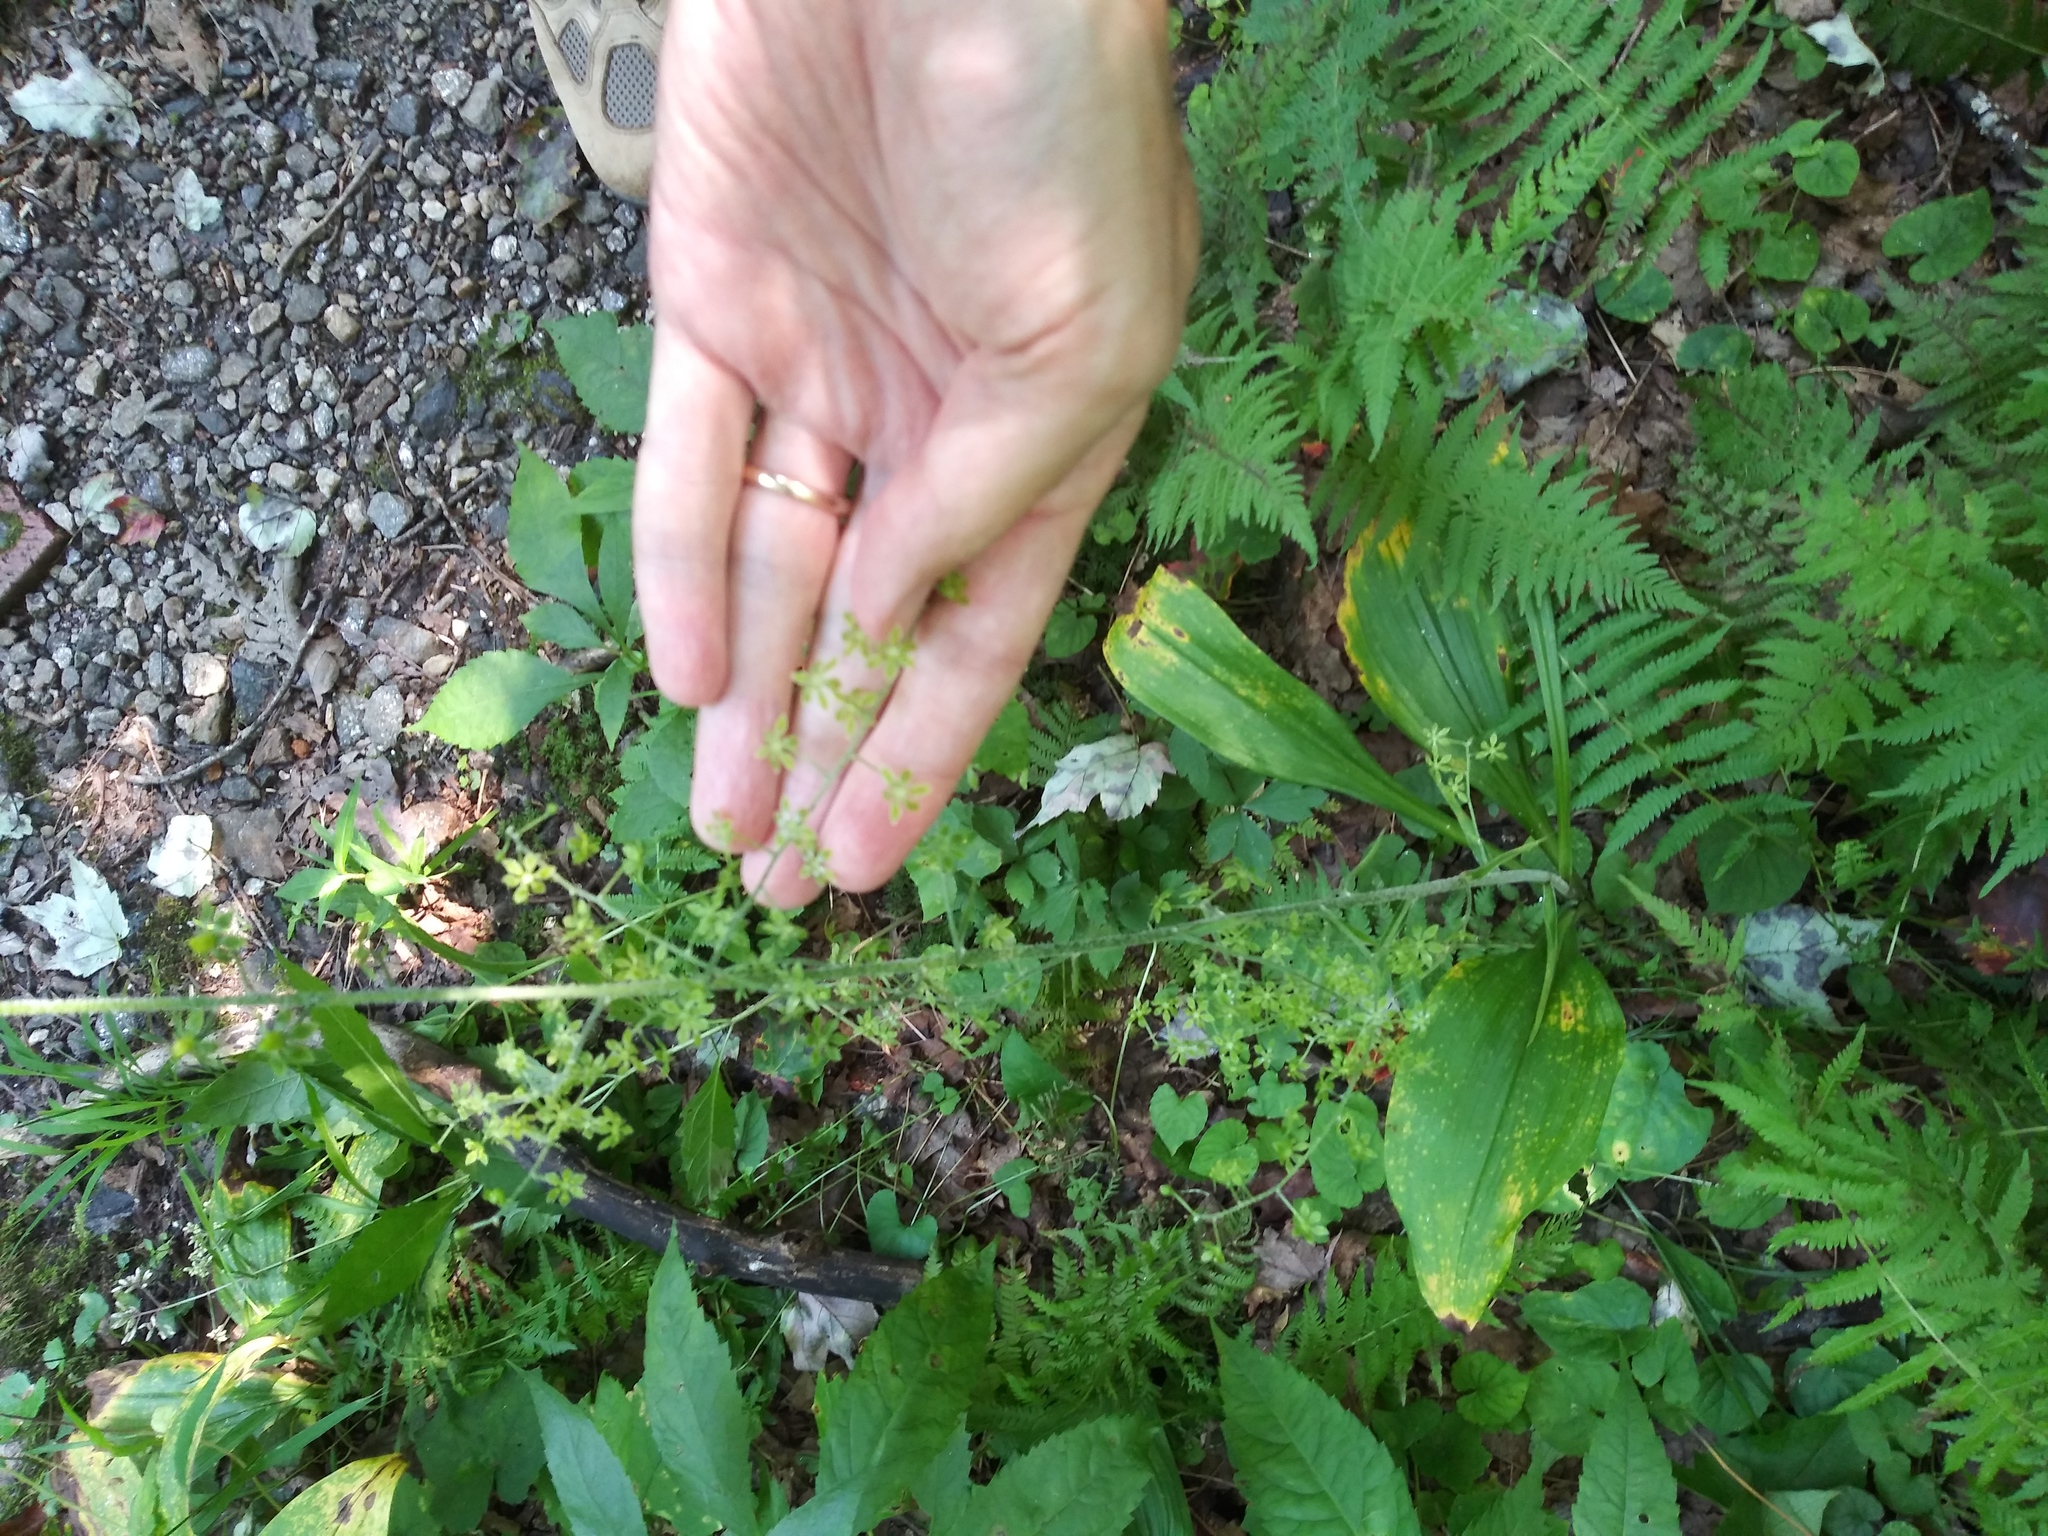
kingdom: Plantae
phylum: Tracheophyta
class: Liliopsida
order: Liliales
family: Melanthiaceae
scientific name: Melanthiaceae
